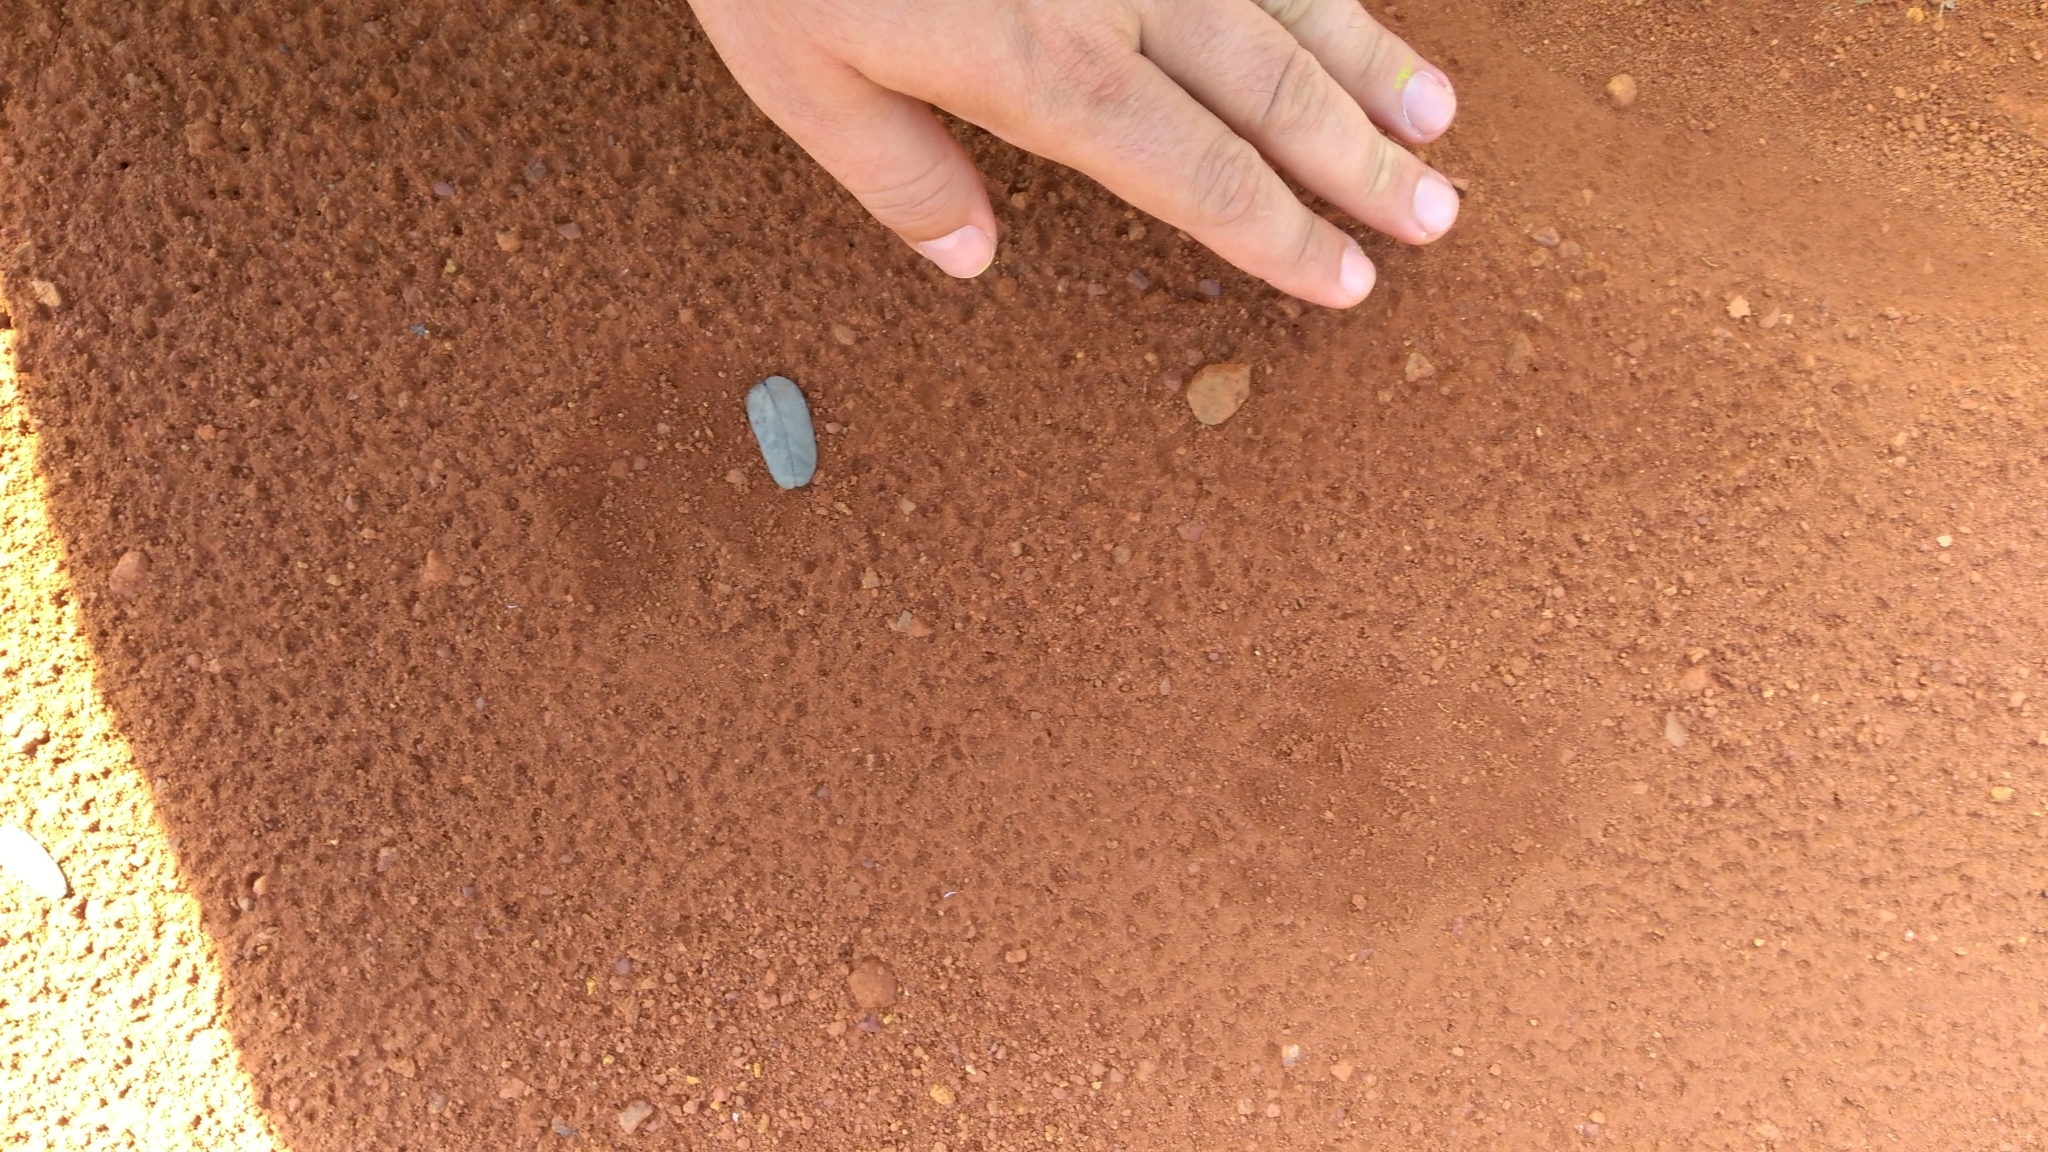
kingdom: Animalia
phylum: Chordata
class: Mammalia
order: Pilosa
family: Myrmecophagidae
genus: Tamandua
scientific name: Tamandua tetradactyla
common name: Southern tamandua
